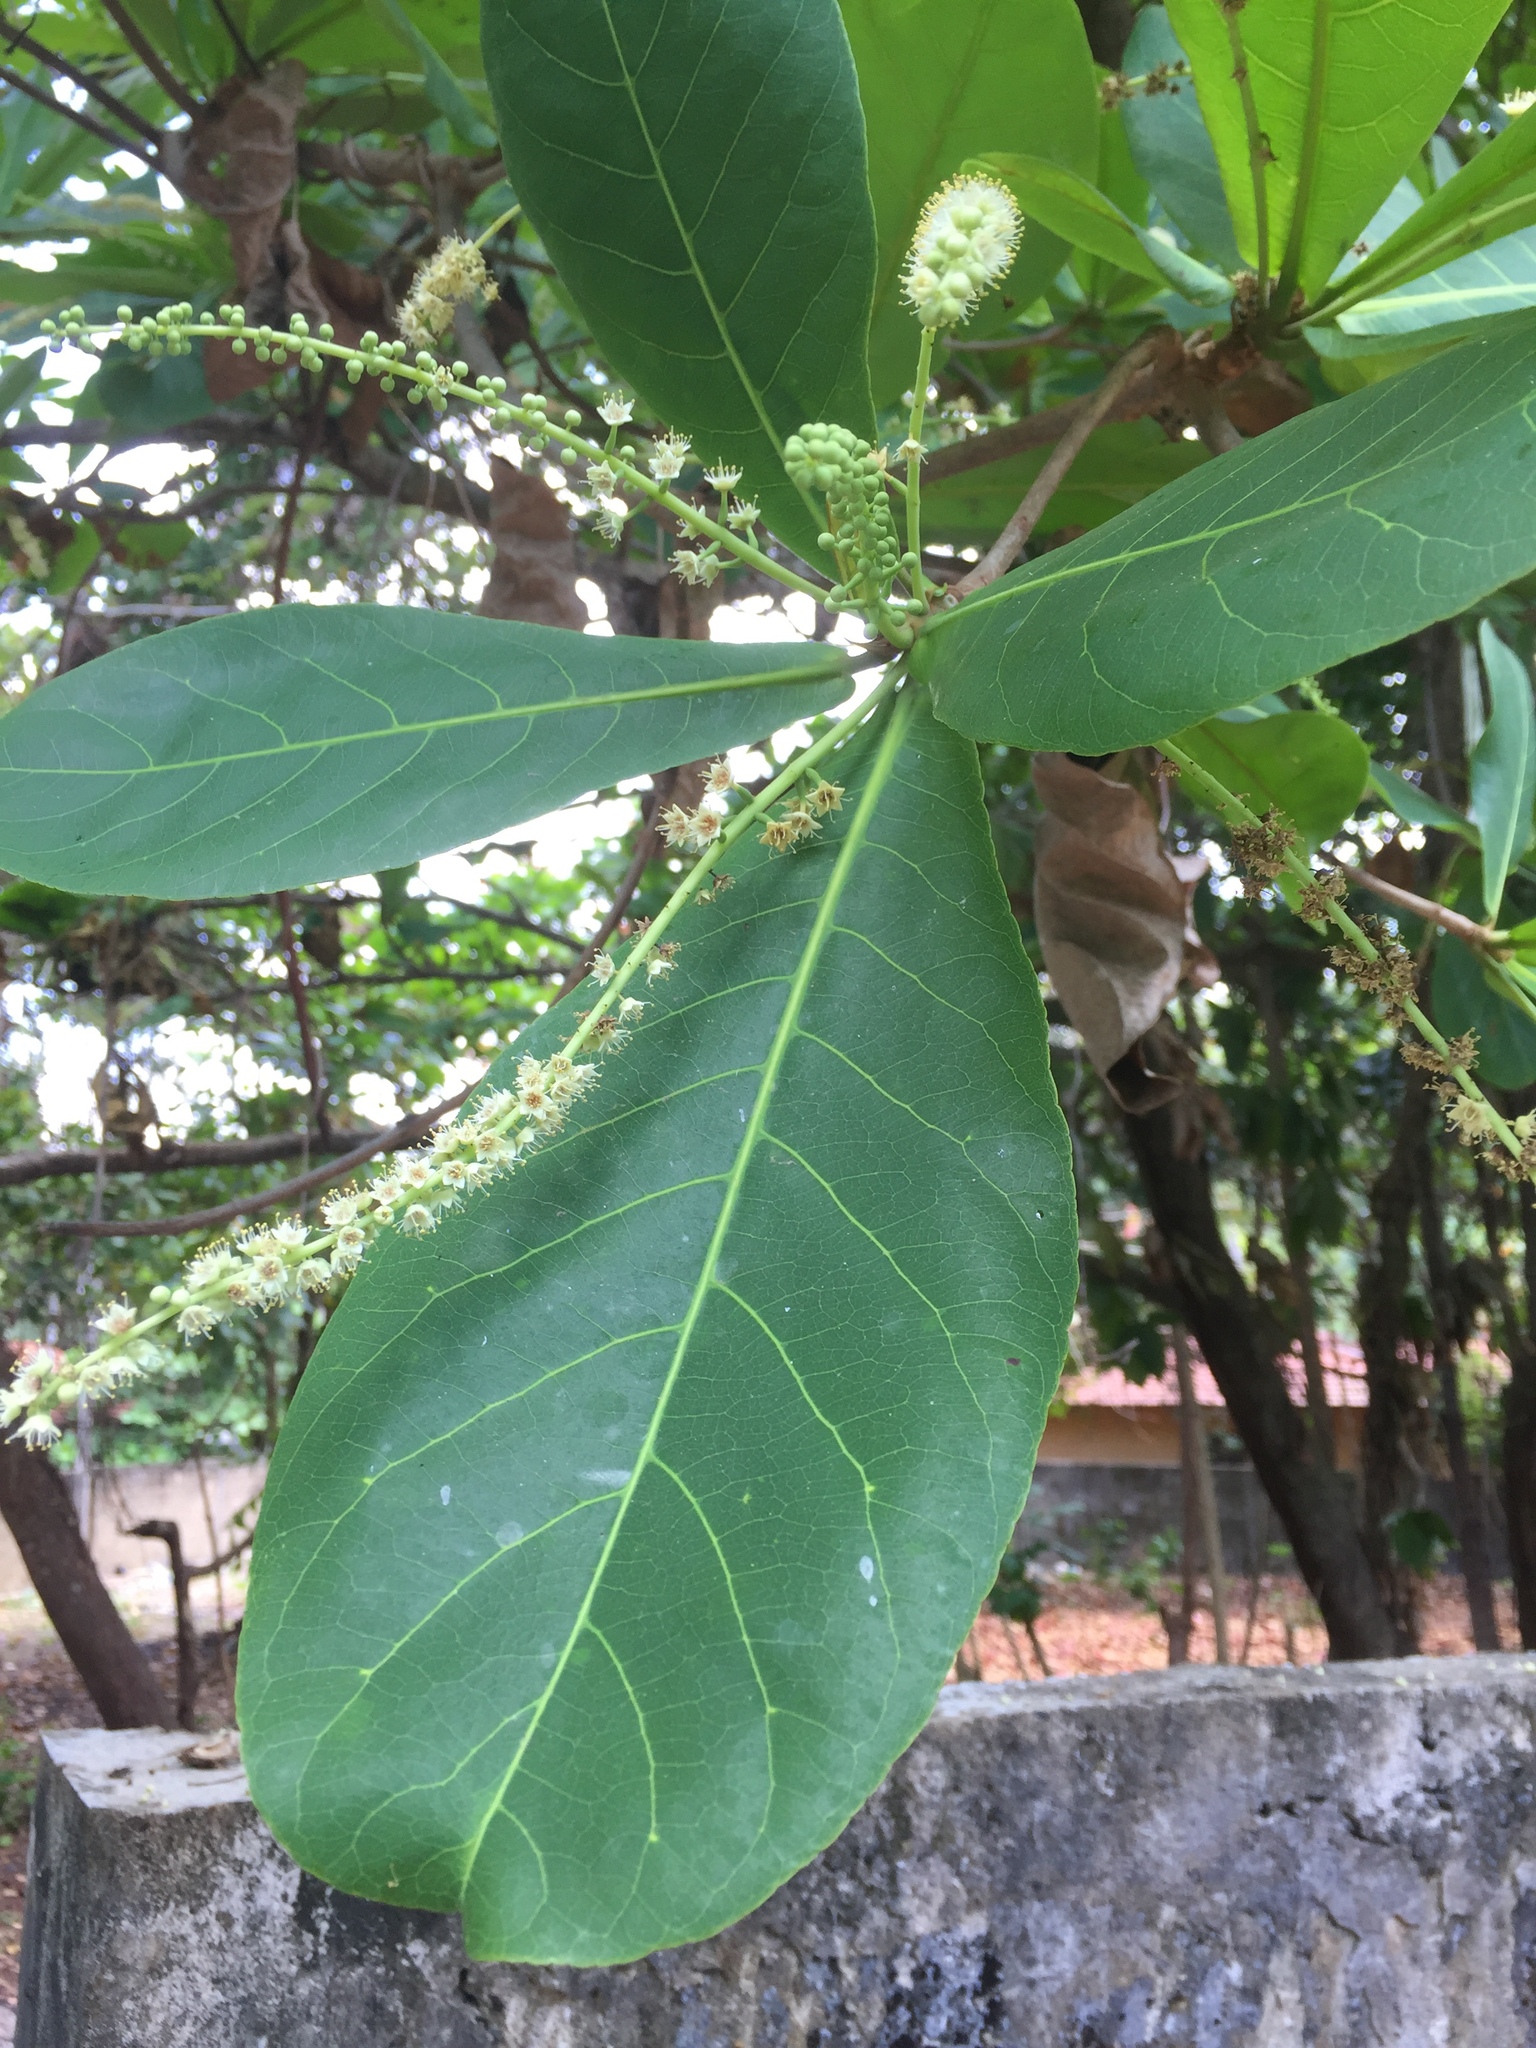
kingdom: Plantae
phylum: Tracheophyta
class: Magnoliopsida
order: Myrtales
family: Combretaceae
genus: Terminalia
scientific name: Terminalia catappa
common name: Tropical almond
